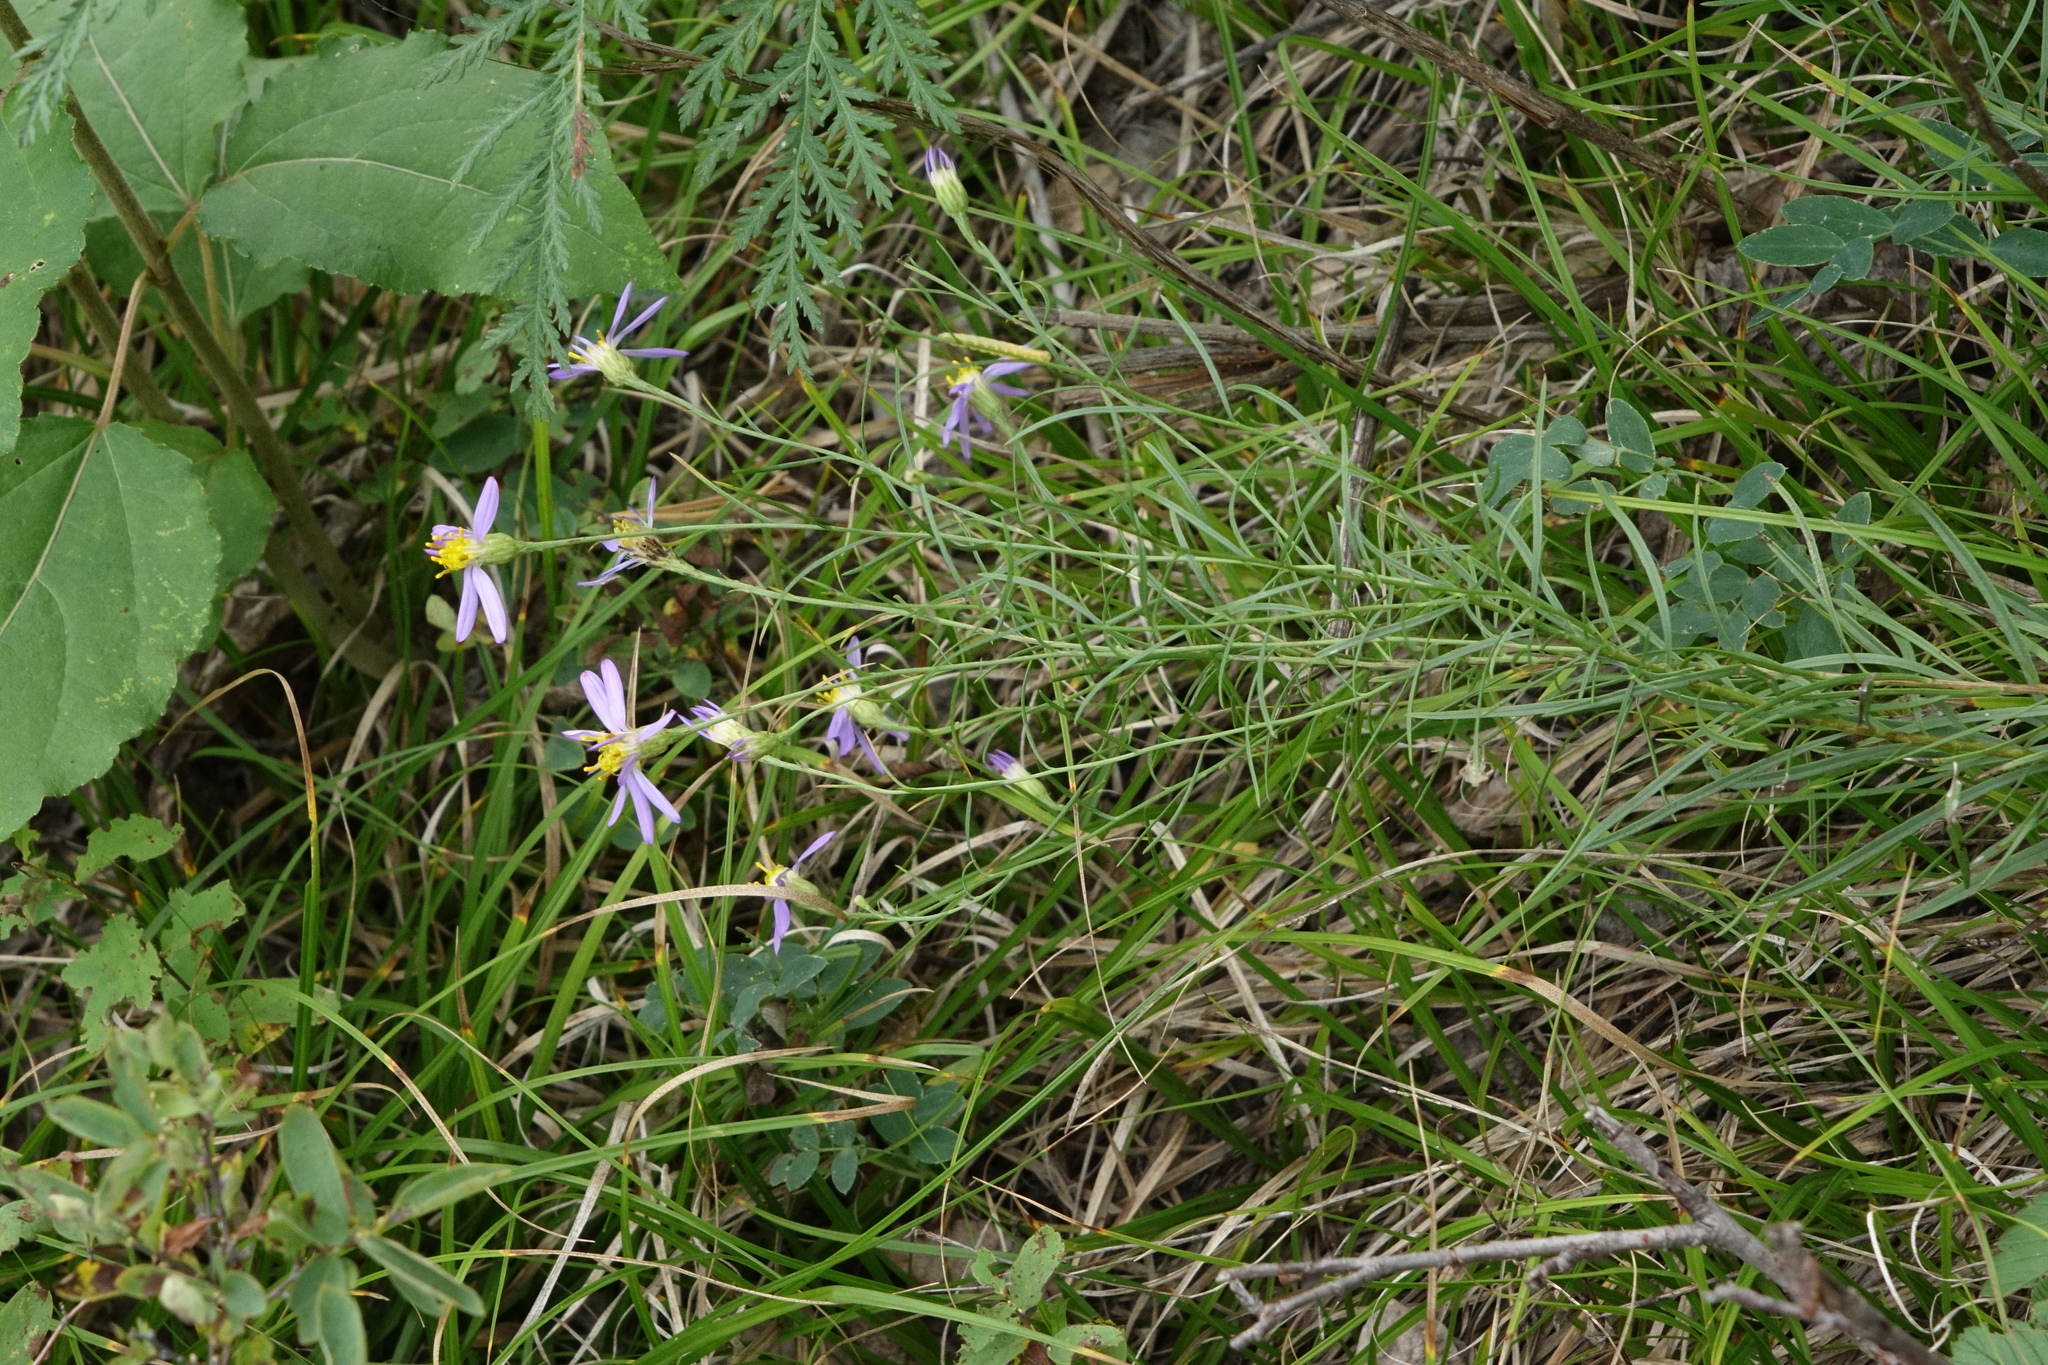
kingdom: Plantae
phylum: Tracheophyta
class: Magnoliopsida
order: Asterales
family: Asteraceae
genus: Galatella
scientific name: Galatella angustissima
